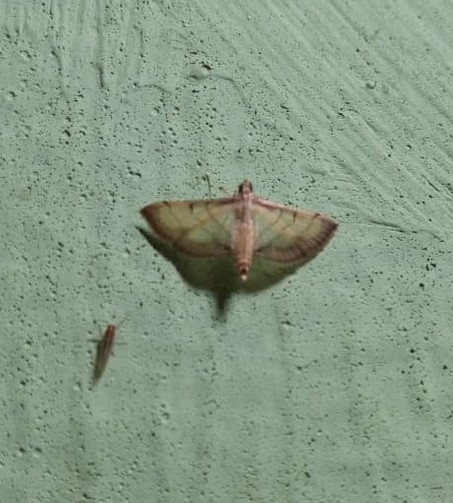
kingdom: Animalia
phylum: Arthropoda
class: Insecta
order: Lepidoptera
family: Crambidae
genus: Cnaphalocrocis
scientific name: Cnaphalocrocis poeyalis
